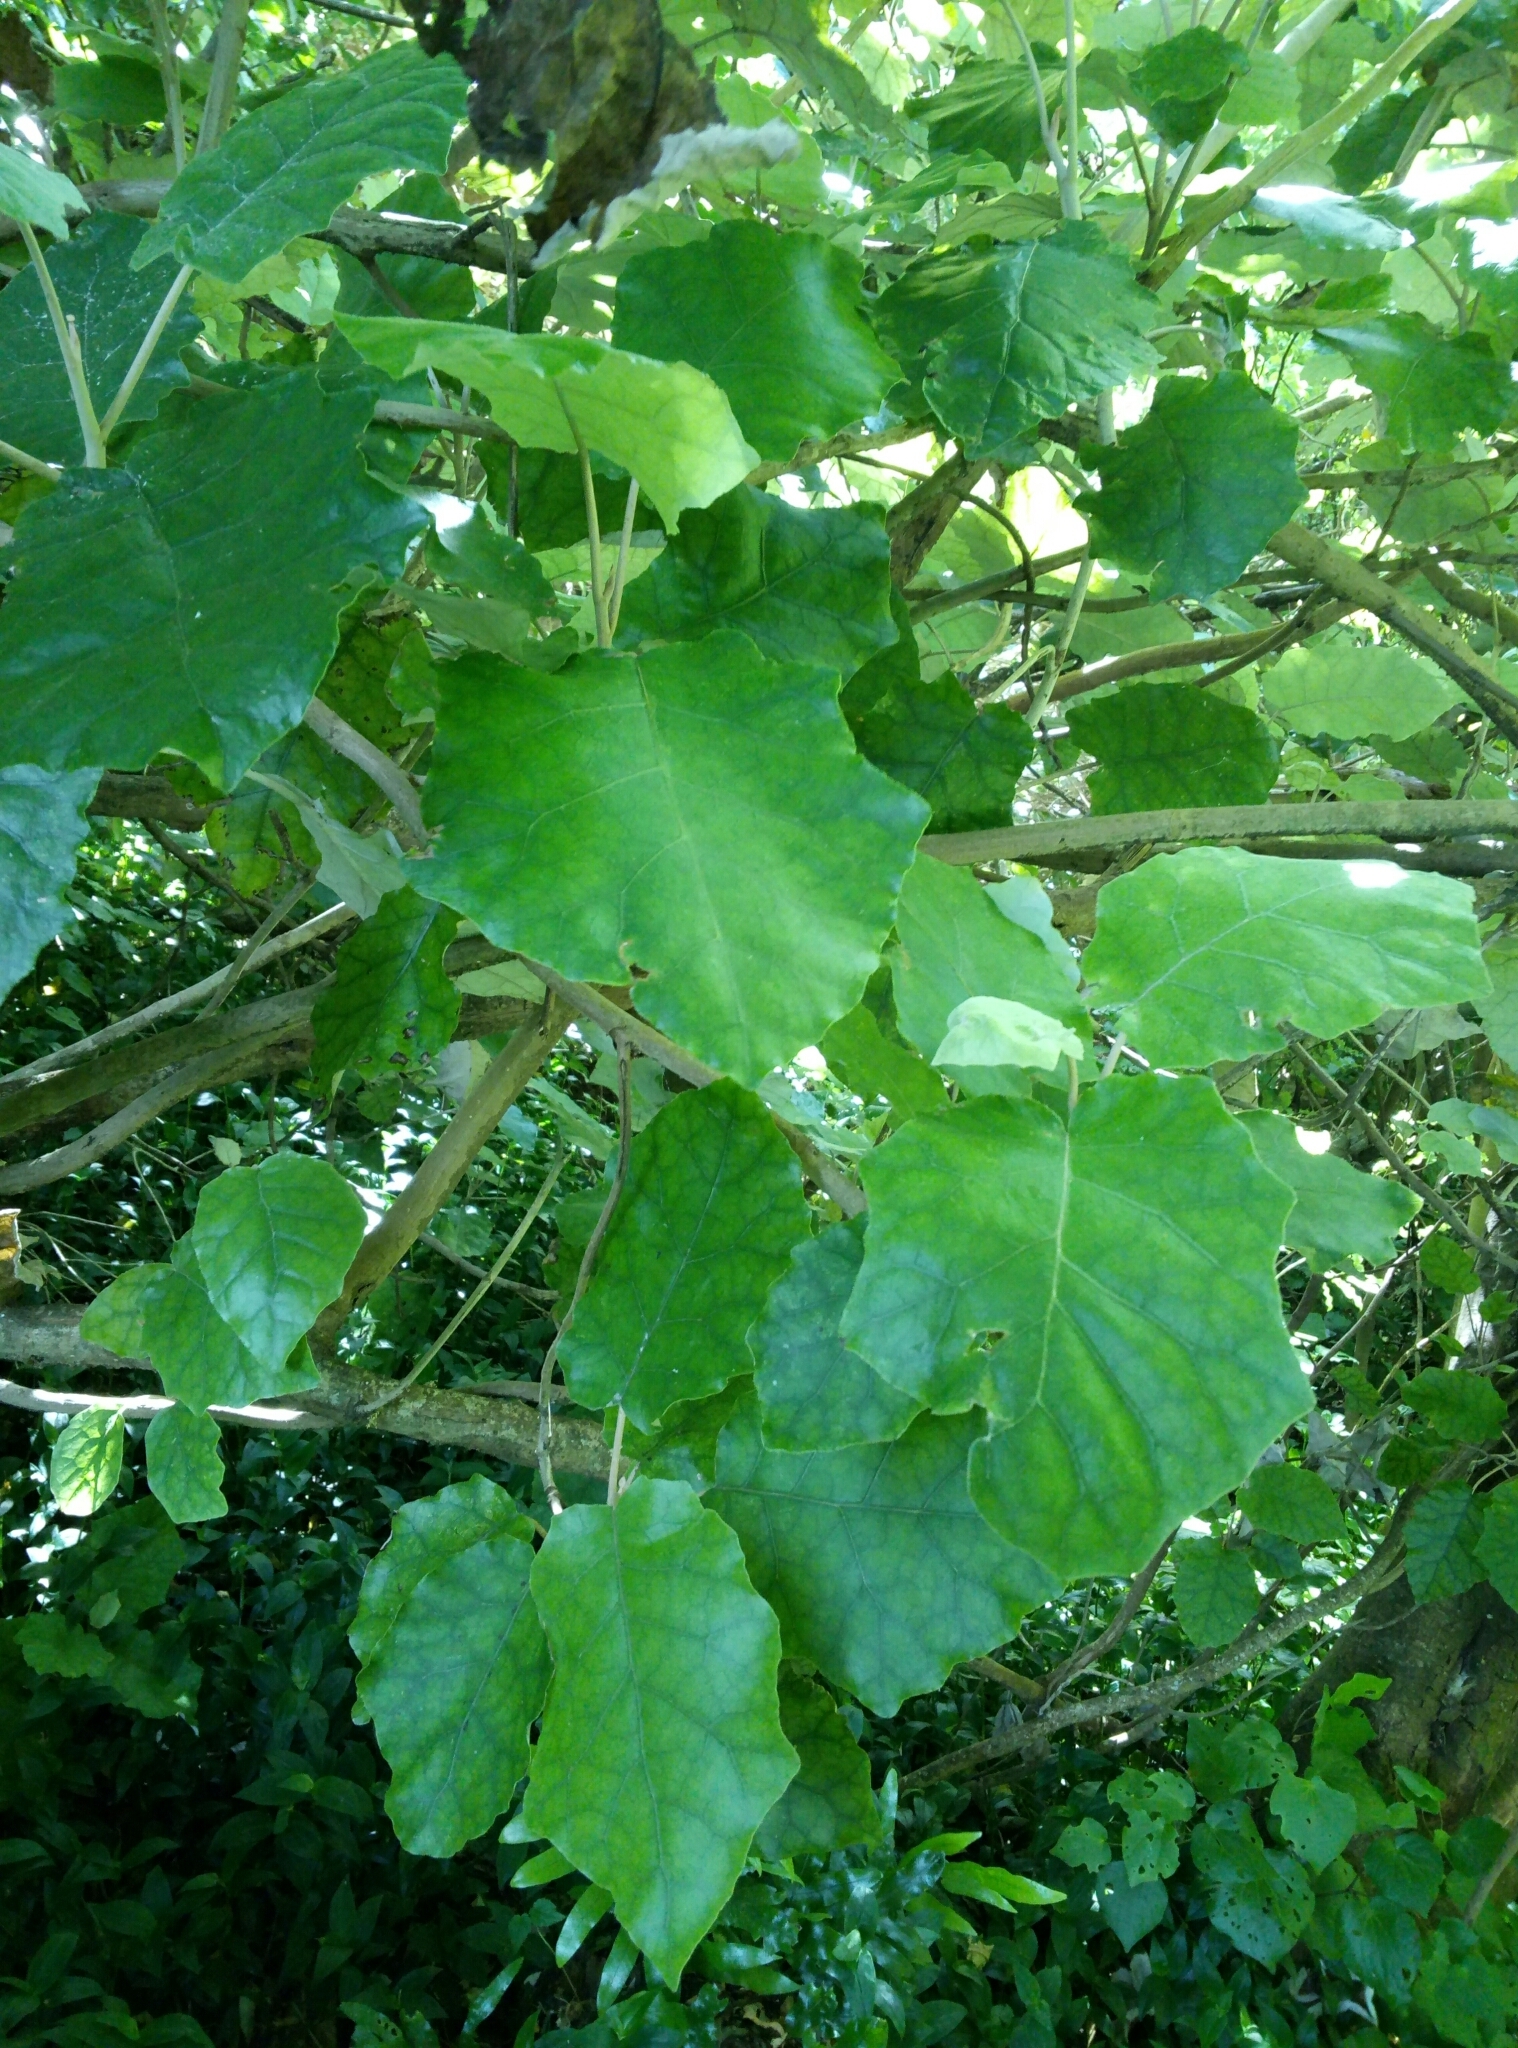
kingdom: Plantae
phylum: Tracheophyta
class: Magnoliopsida
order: Asterales
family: Asteraceae
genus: Brachyglottis
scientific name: Brachyglottis repanda
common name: Hedge ragwort
